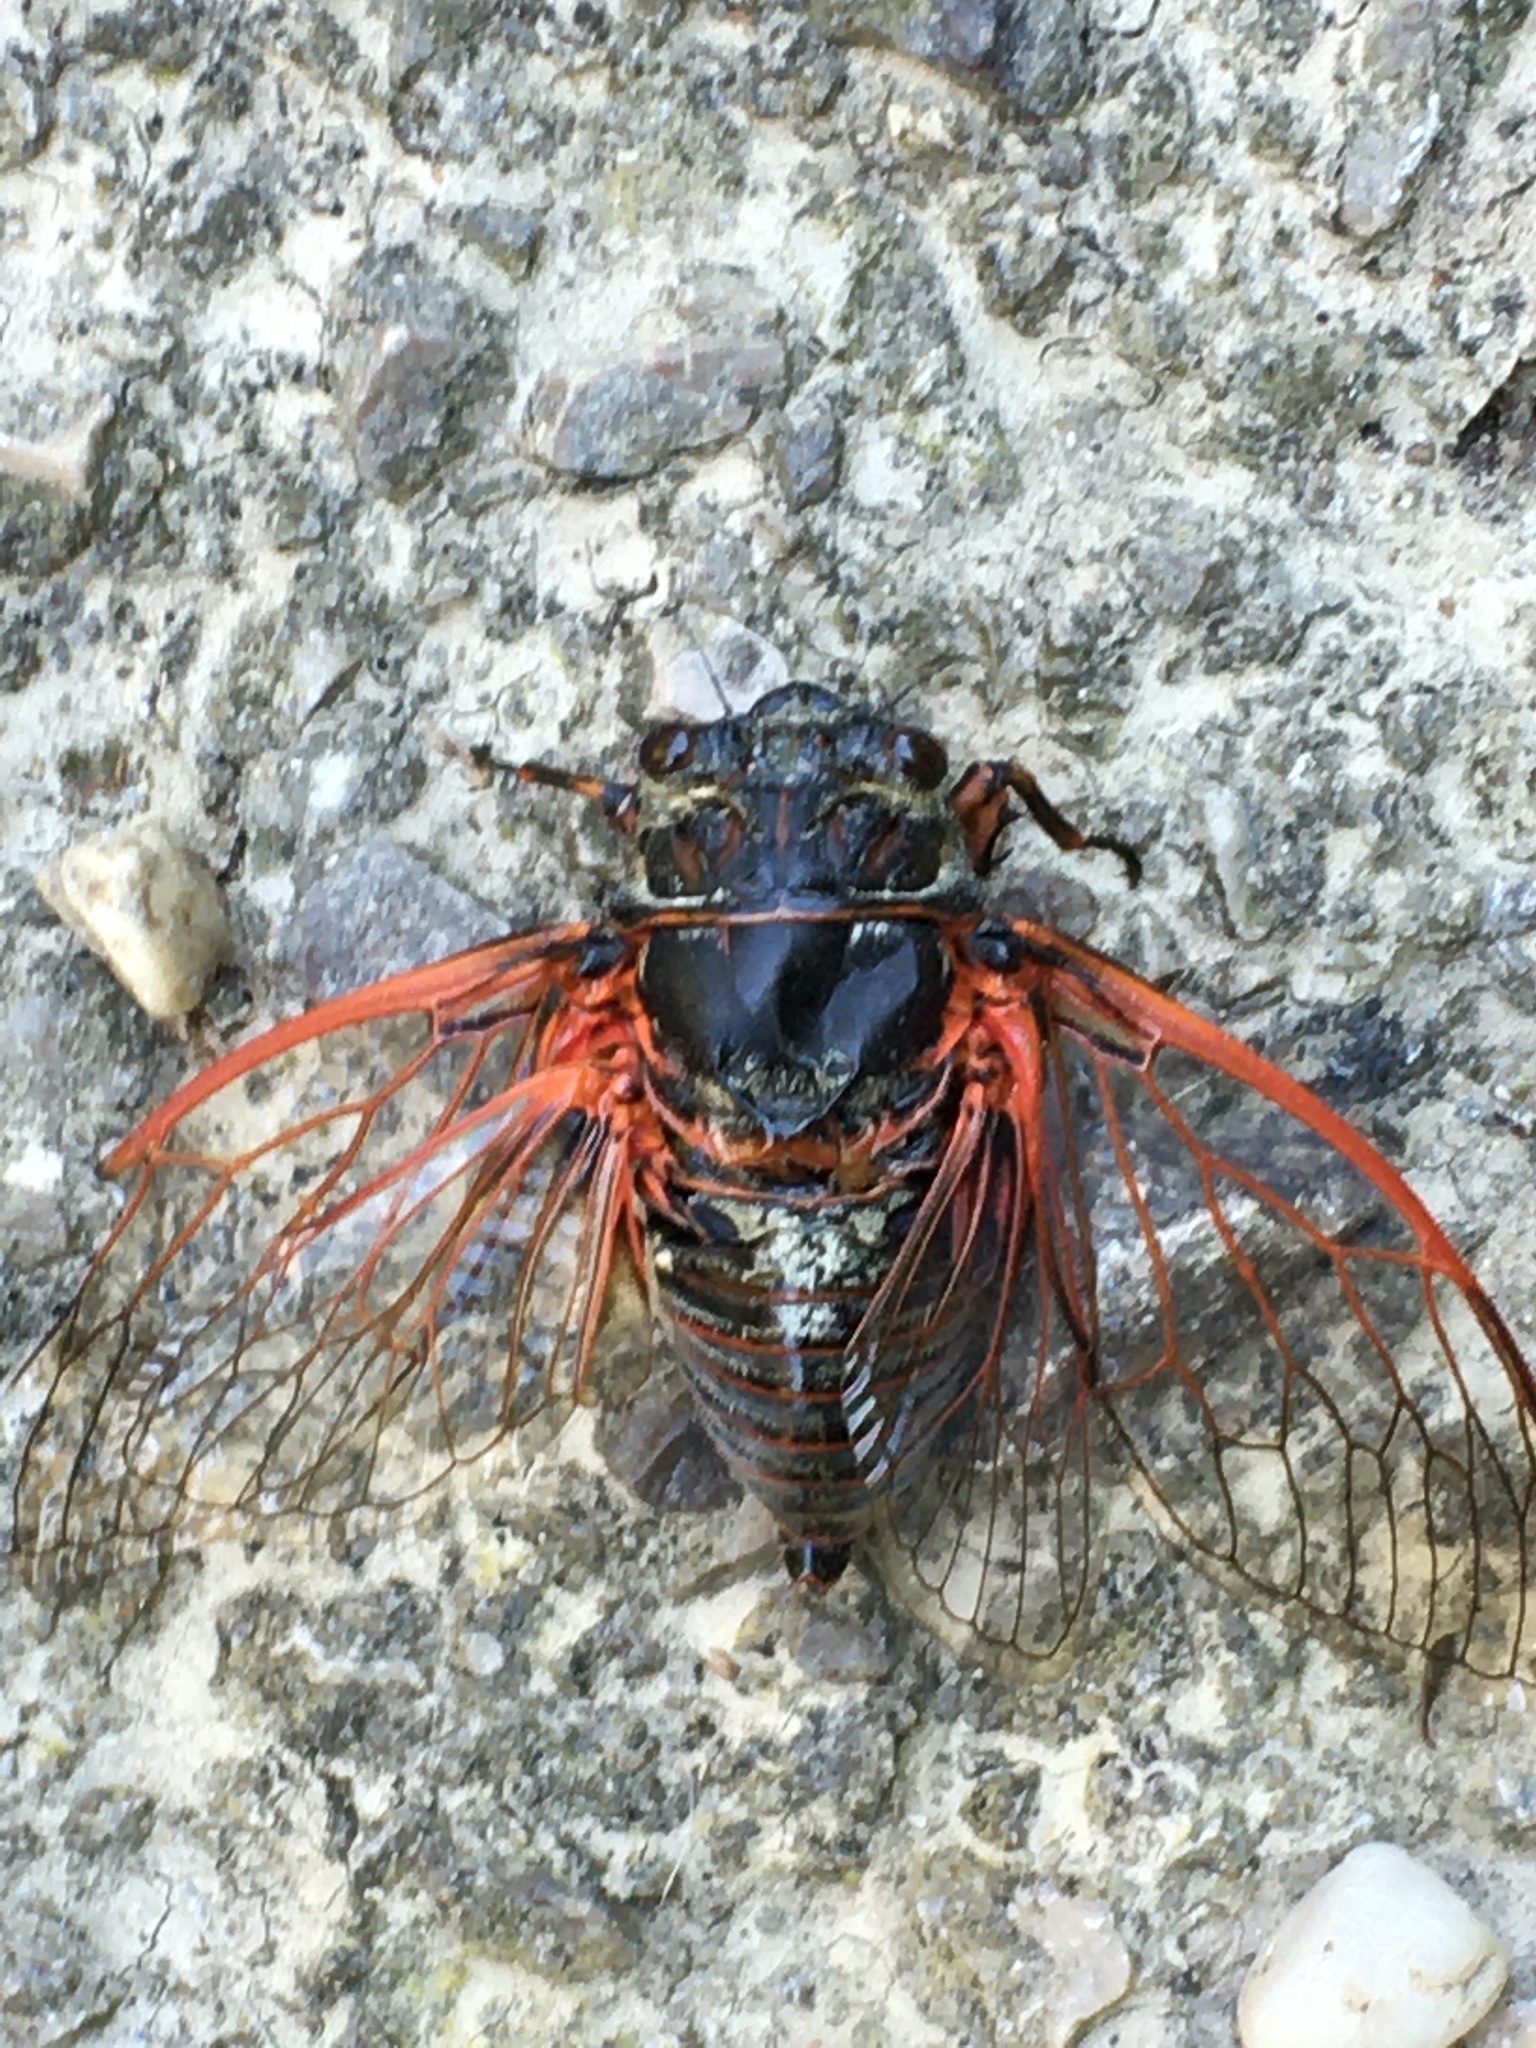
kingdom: Animalia
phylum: Arthropoda
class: Insecta
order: Hemiptera
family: Cicadidae
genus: Tibicina
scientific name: Tibicina haematodes
